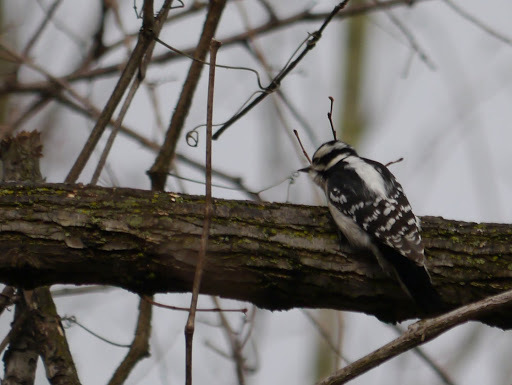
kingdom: Animalia
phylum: Chordata
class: Aves
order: Piciformes
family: Picidae
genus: Dryobates
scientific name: Dryobates pubescens
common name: Downy woodpecker
